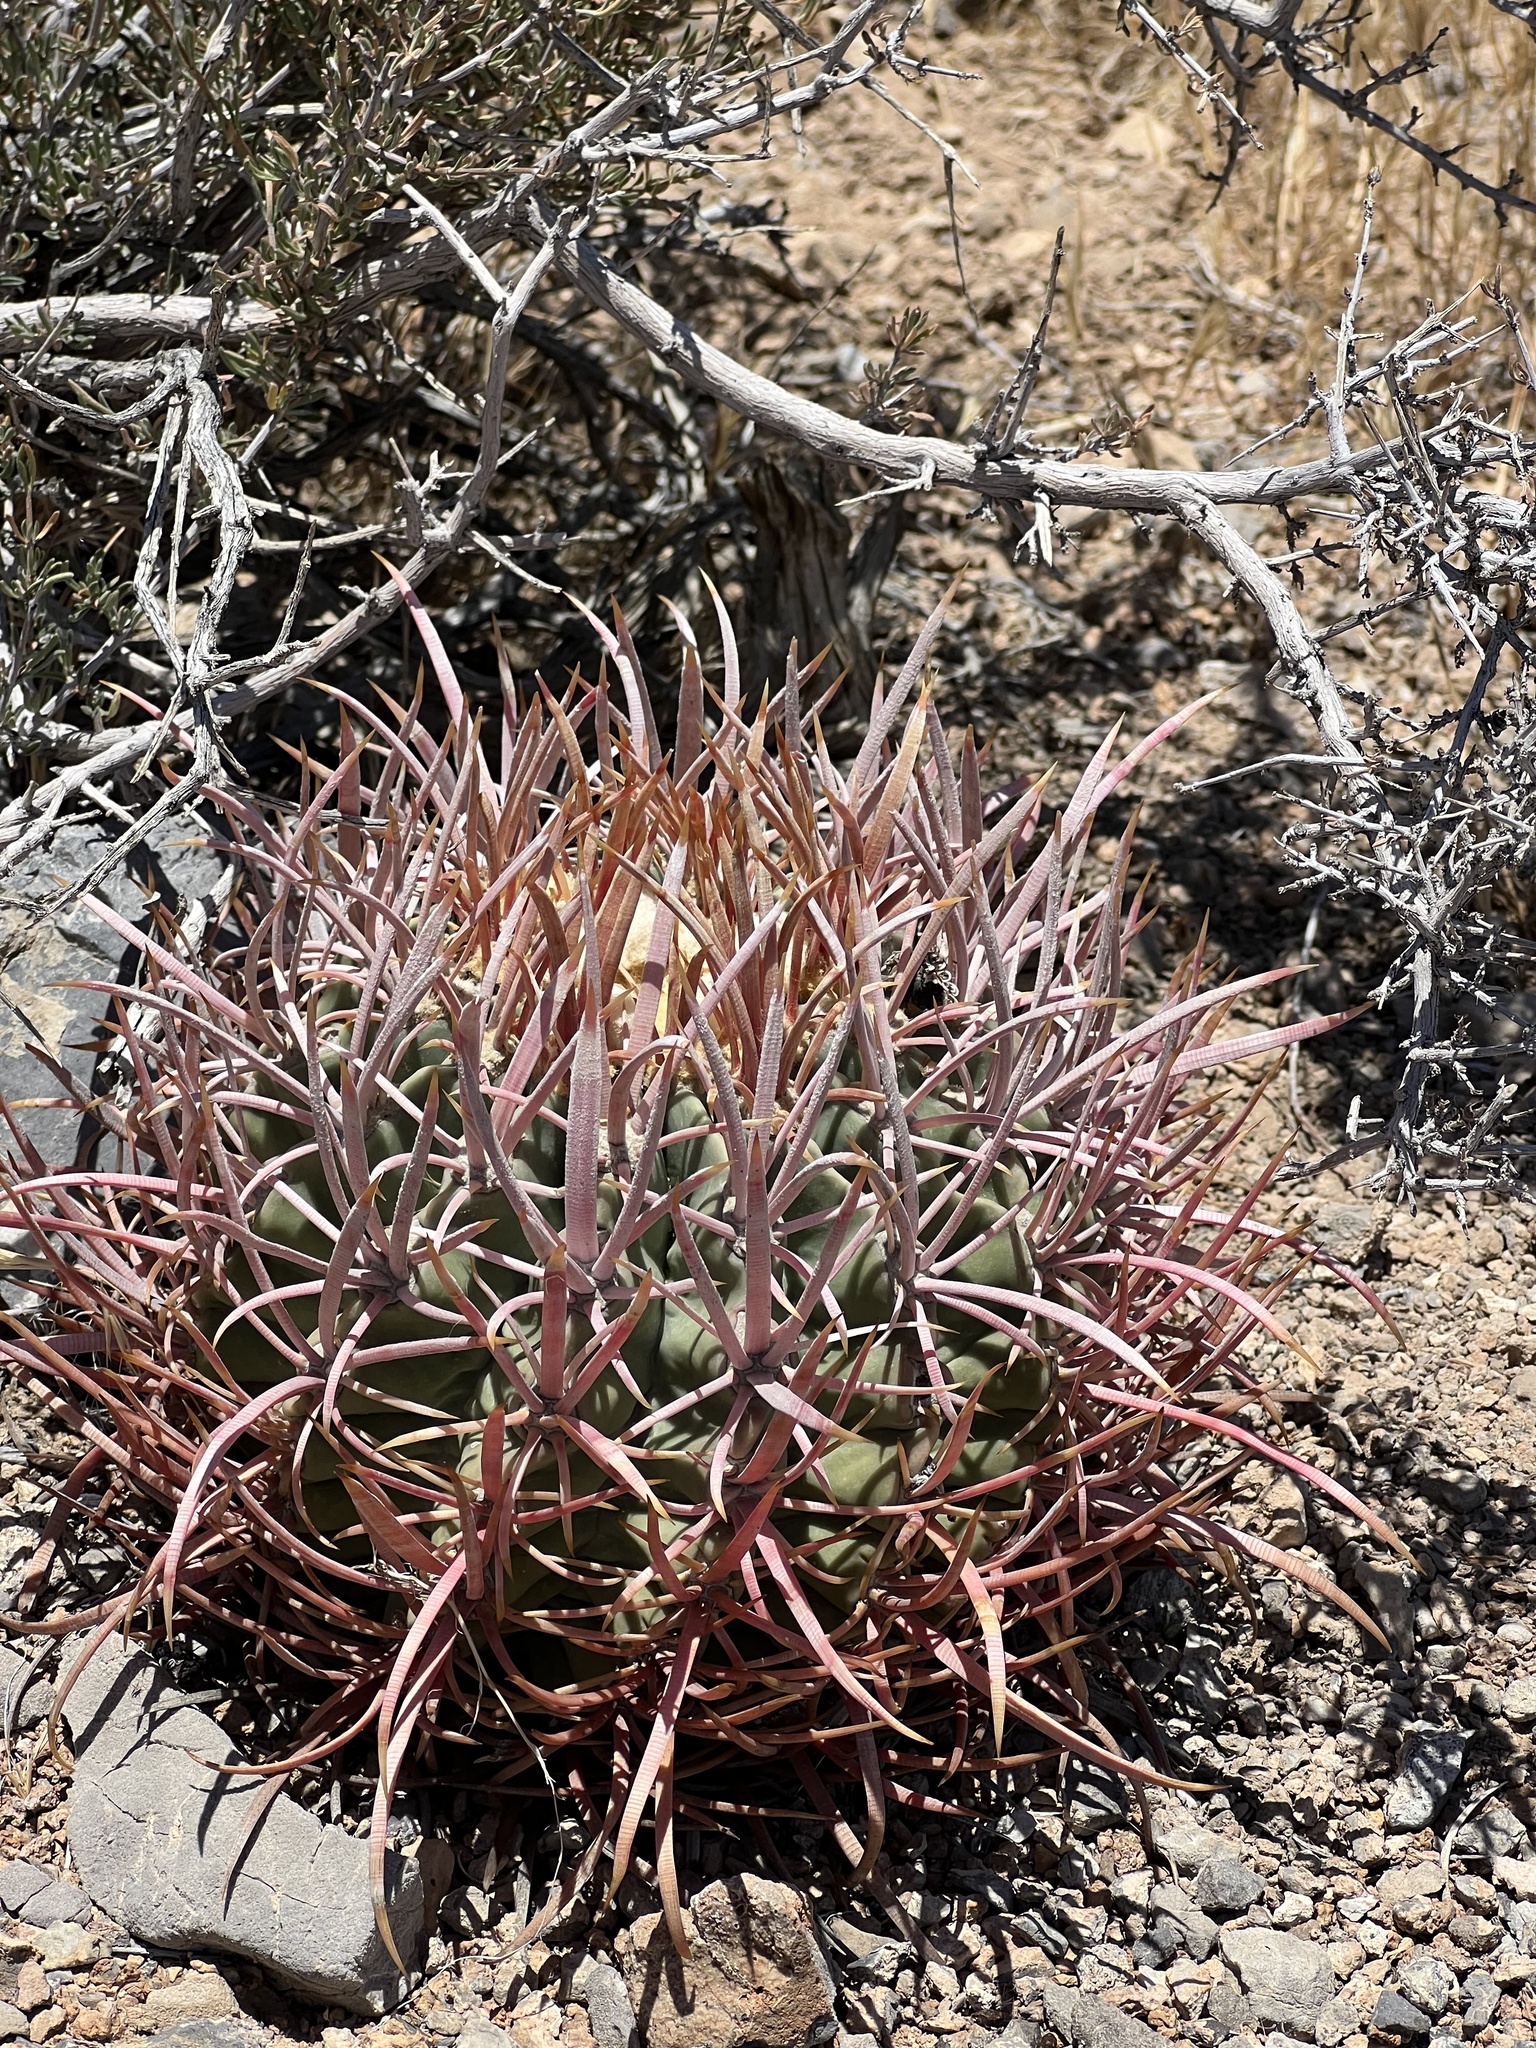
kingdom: Plantae
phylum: Tracheophyta
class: Magnoliopsida
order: Caryophyllales
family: Cactaceae
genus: Echinocactus
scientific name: Echinocactus polycephalus
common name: Cottontop cactus
